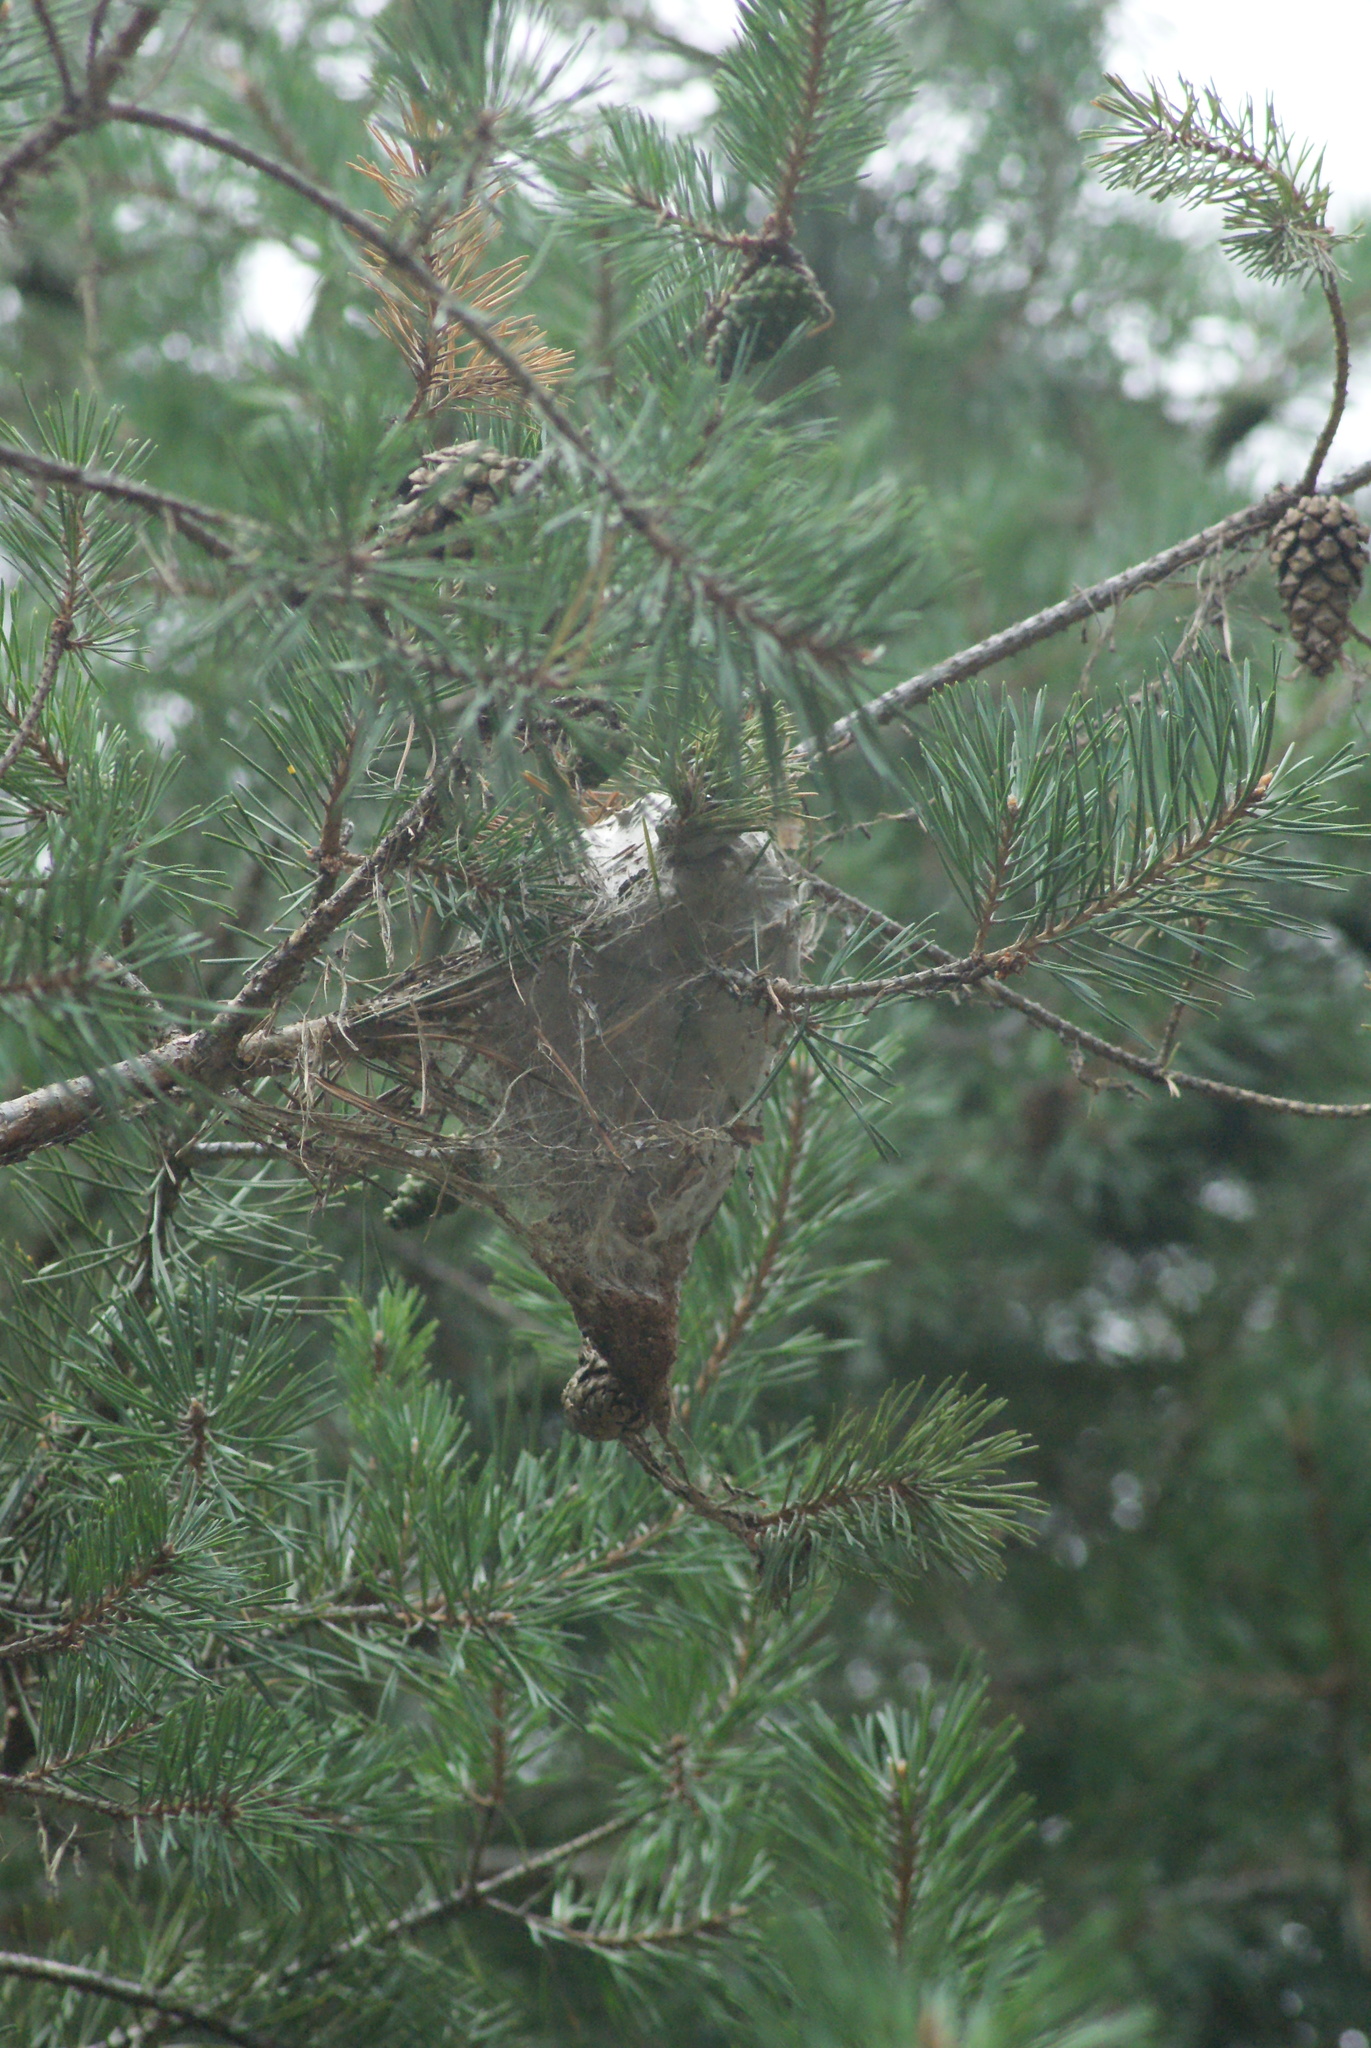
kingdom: Animalia
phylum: Arthropoda
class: Insecta
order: Lepidoptera
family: Notodontidae
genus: Thaumetopoea
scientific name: Thaumetopoea pityocampa
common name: Pine processionary
